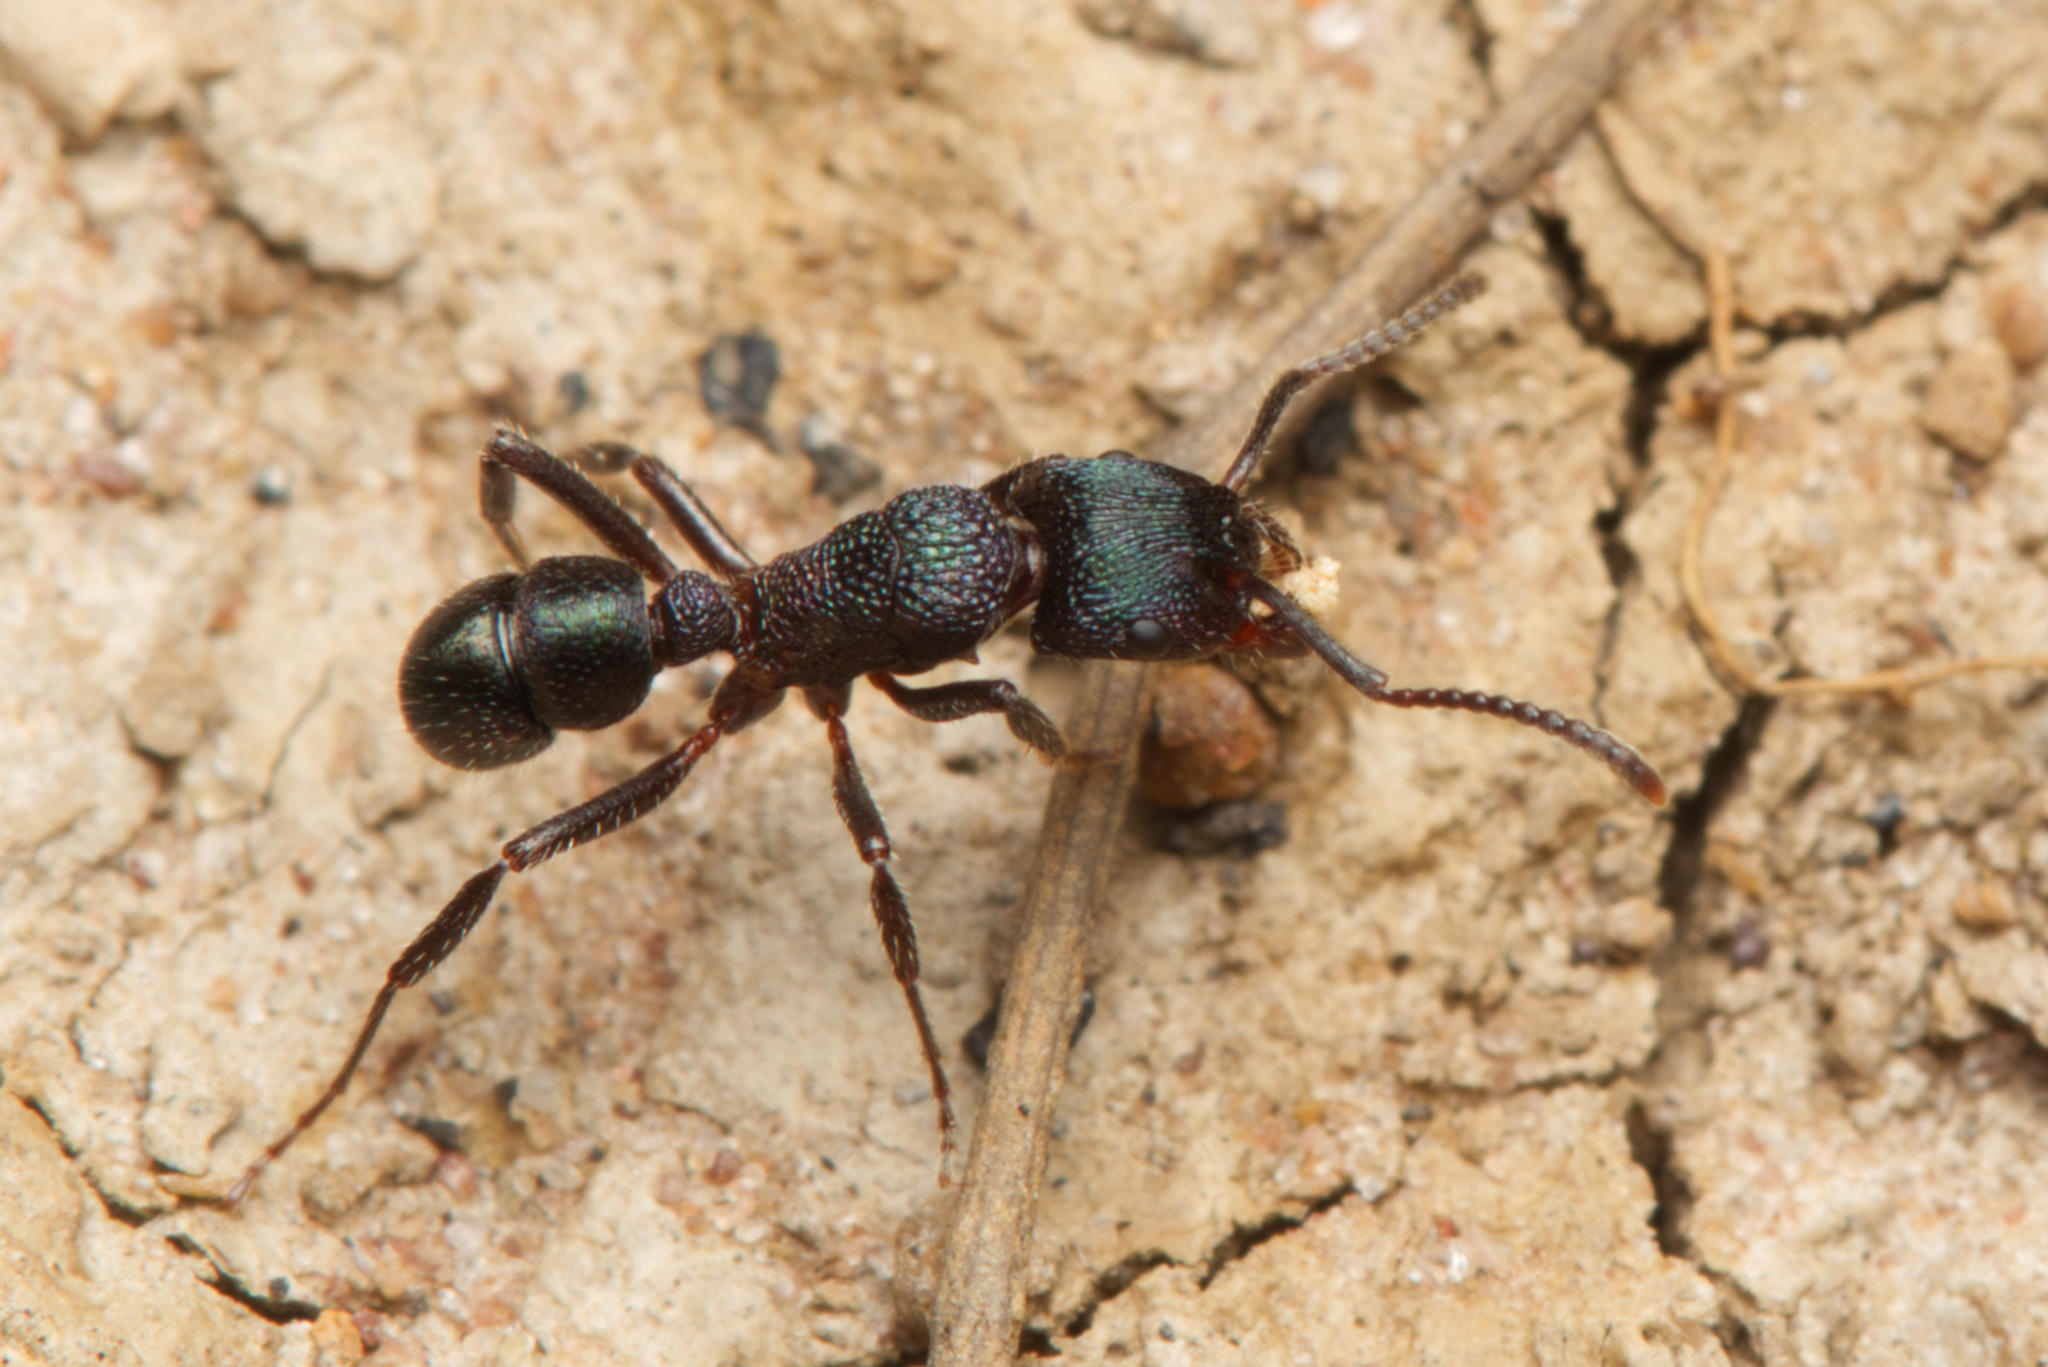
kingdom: Animalia
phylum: Arthropoda
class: Insecta
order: Hymenoptera
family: Formicidae
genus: Rhytidoponera
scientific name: Rhytidoponera metallica
